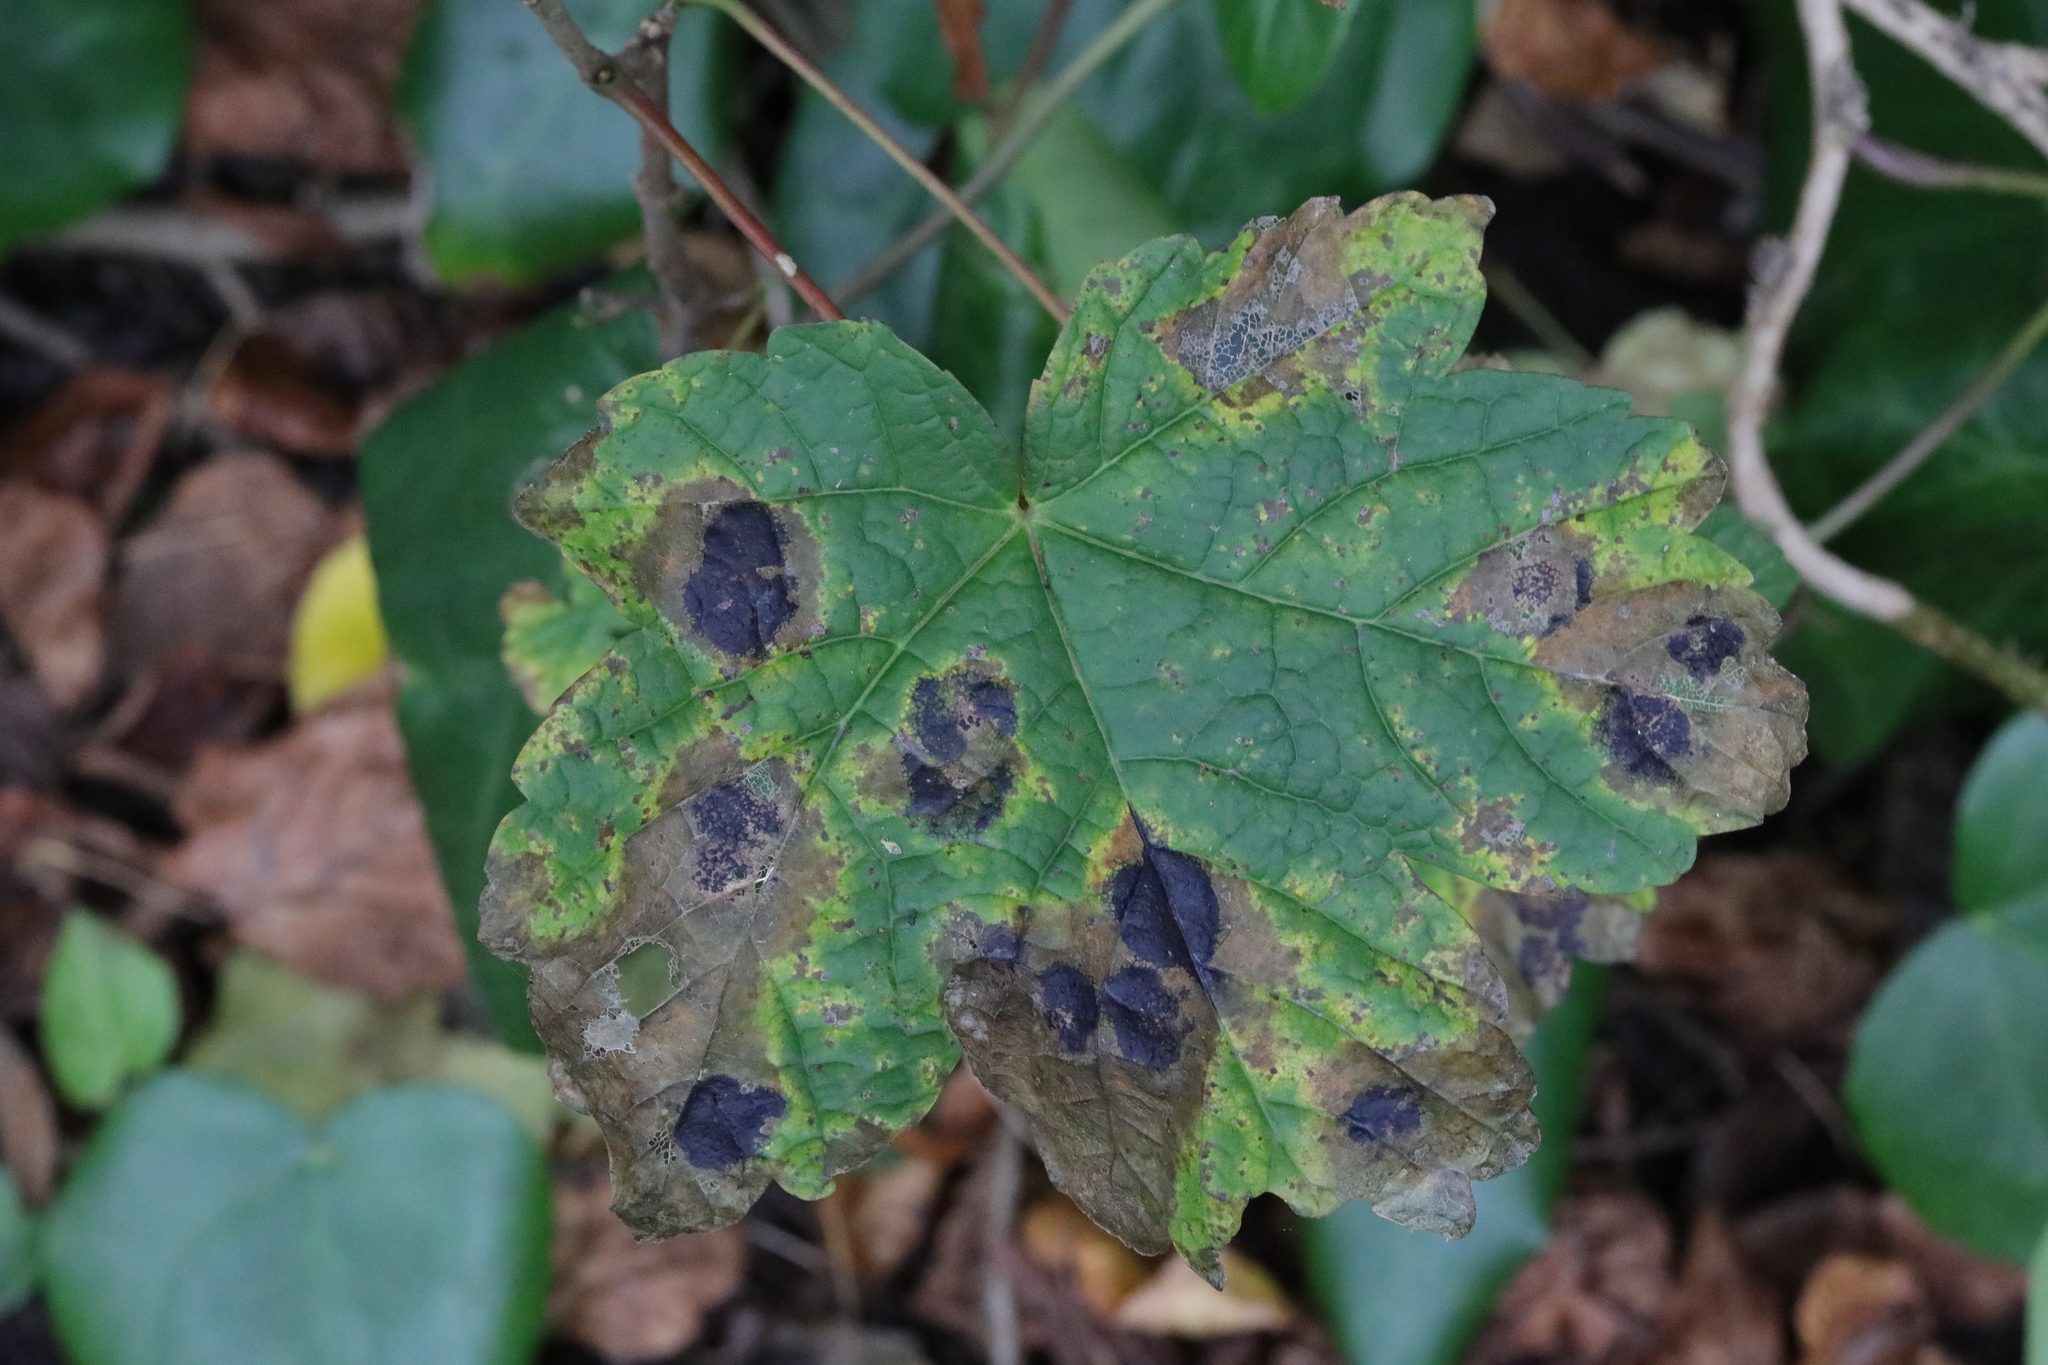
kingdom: Plantae
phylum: Tracheophyta
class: Magnoliopsida
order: Sapindales
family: Sapindaceae
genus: Acer
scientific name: Acer pseudoplatanus
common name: Sycamore
